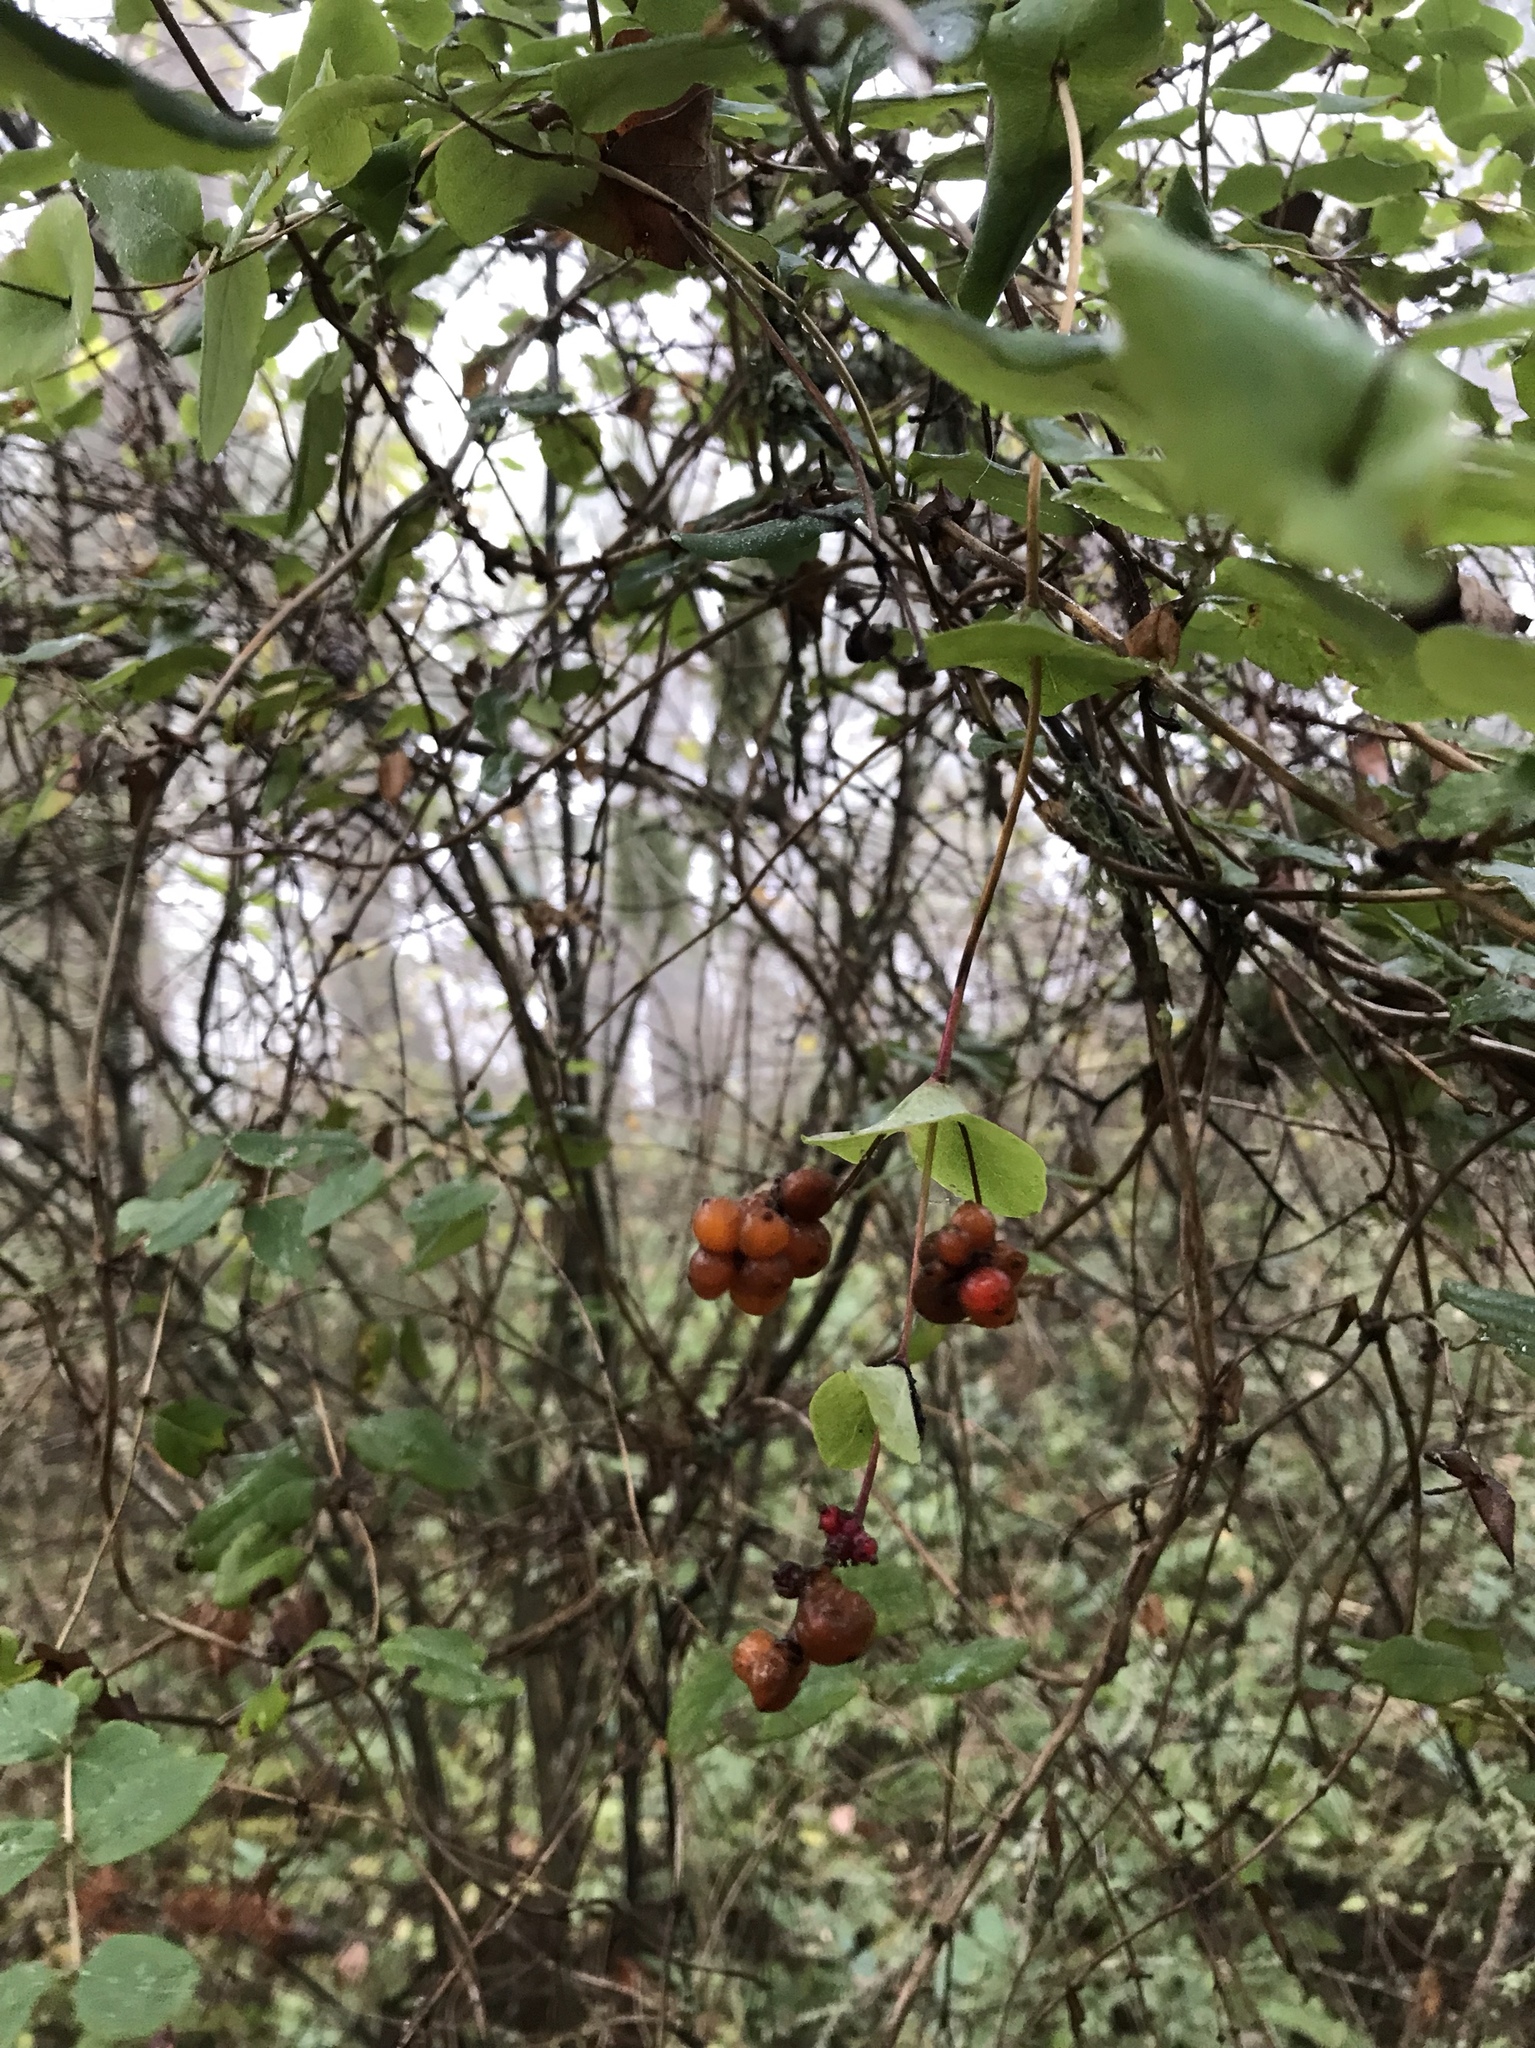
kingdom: Plantae
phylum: Tracheophyta
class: Magnoliopsida
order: Dipsacales
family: Caprifoliaceae
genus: Lonicera
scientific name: Lonicera hispidula
